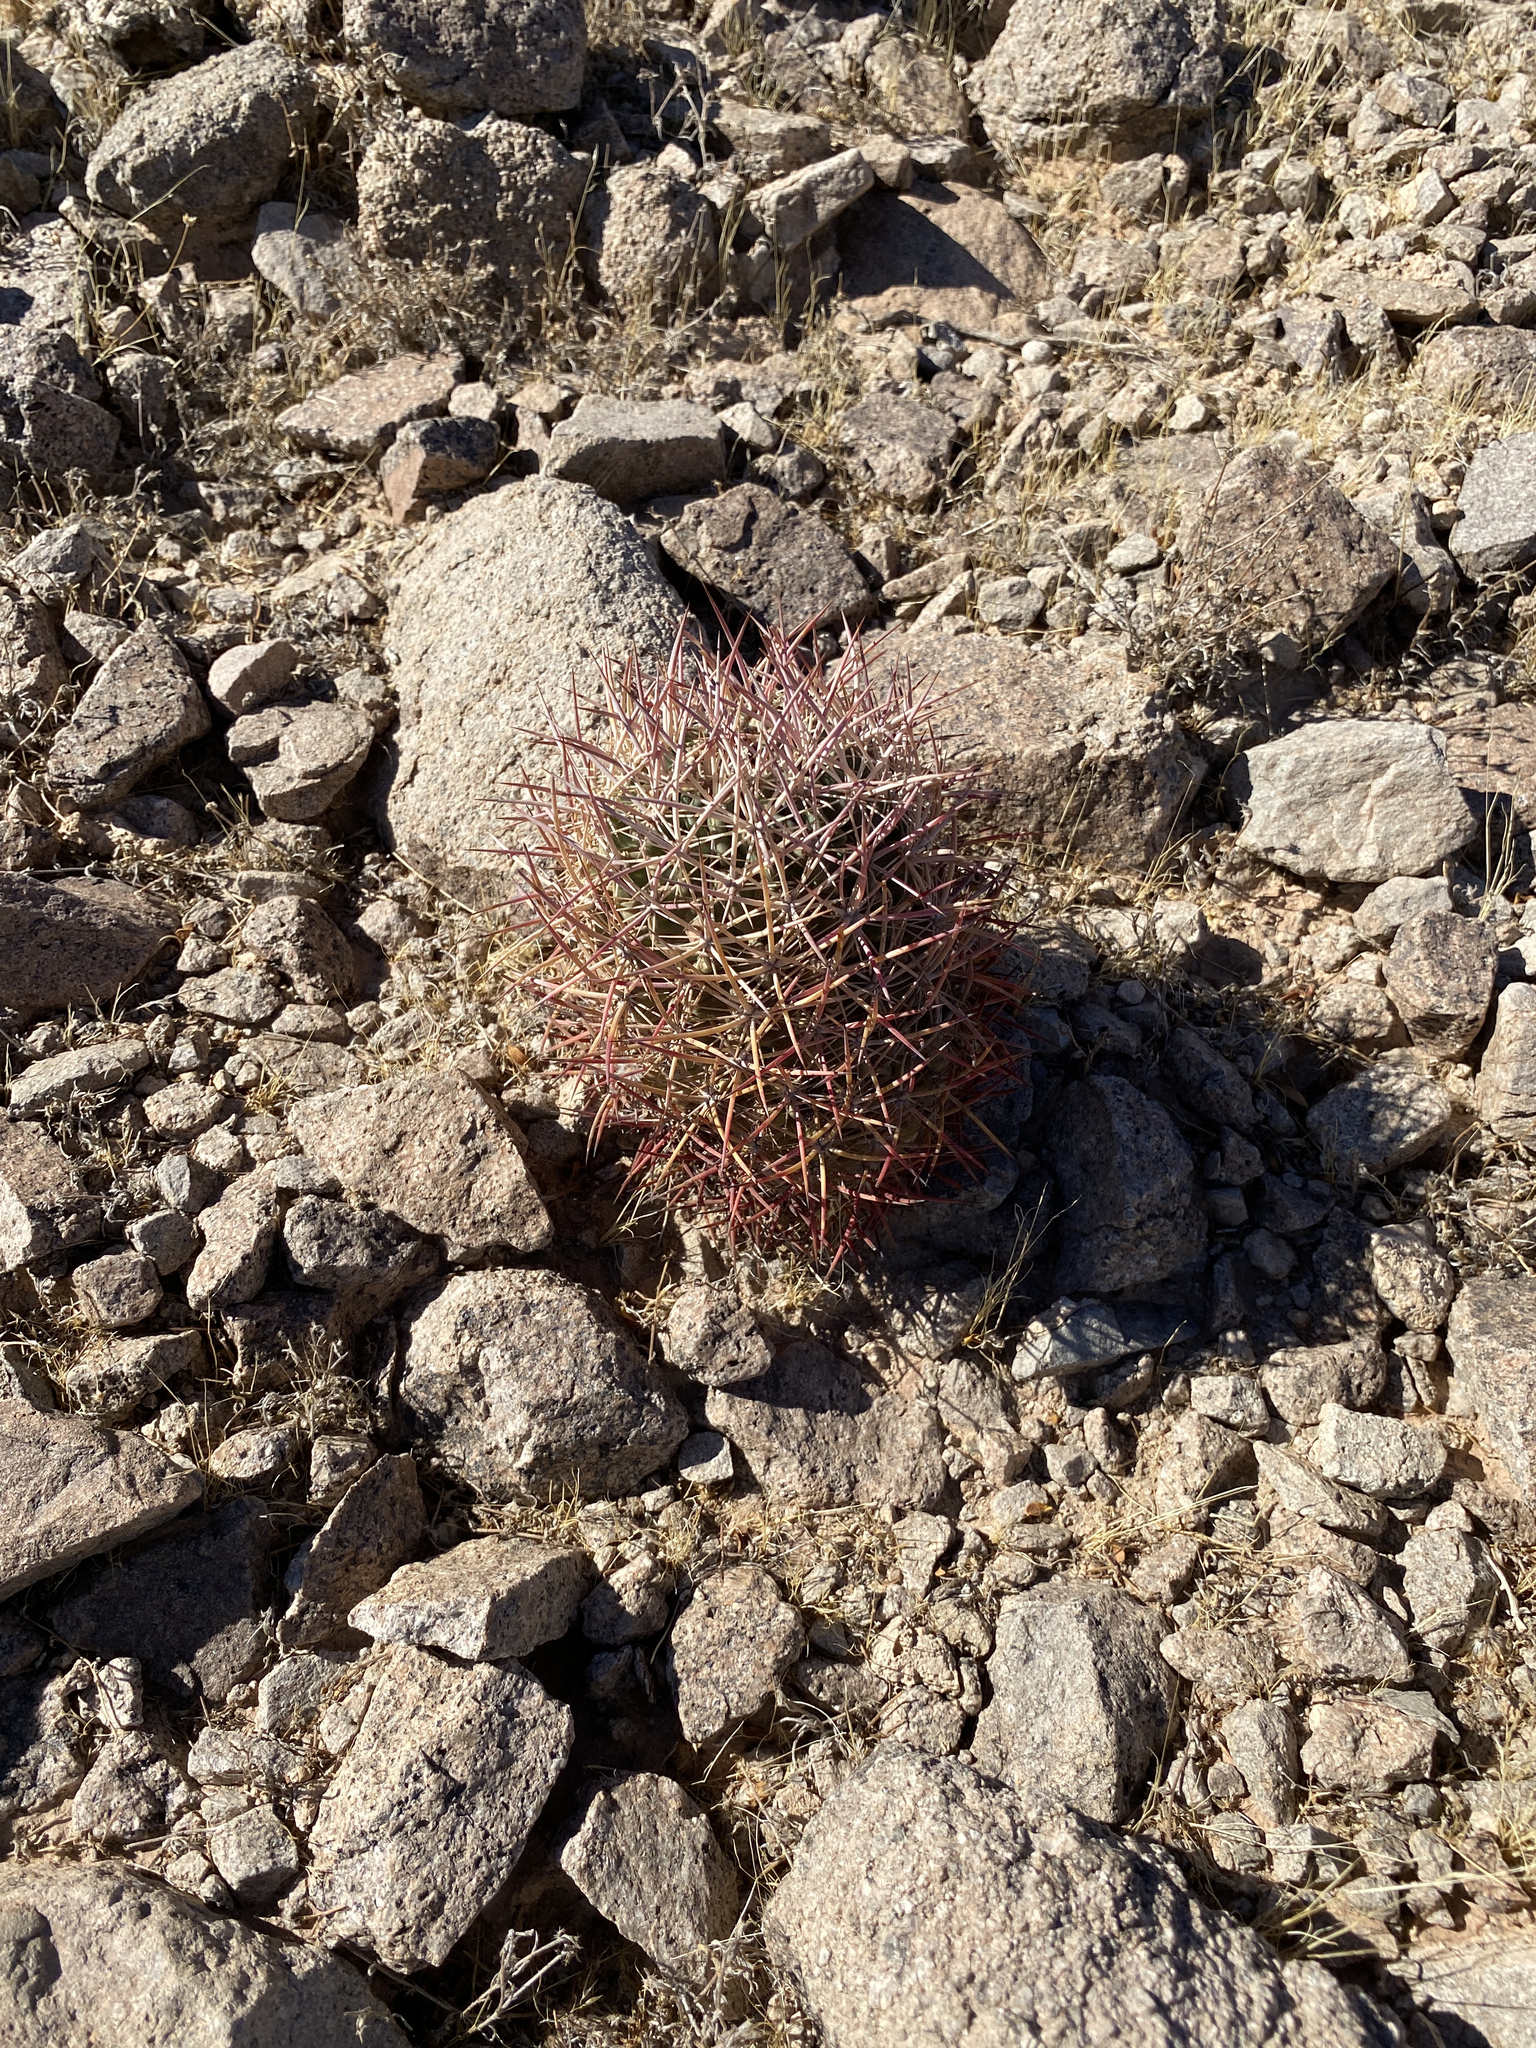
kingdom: Plantae
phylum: Tracheophyta
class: Magnoliopsida
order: Caryophyllales
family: Cactaceae
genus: Sclerocactus
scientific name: Sclerocactus johnsonii
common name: Eight-spine fishhook cactus
